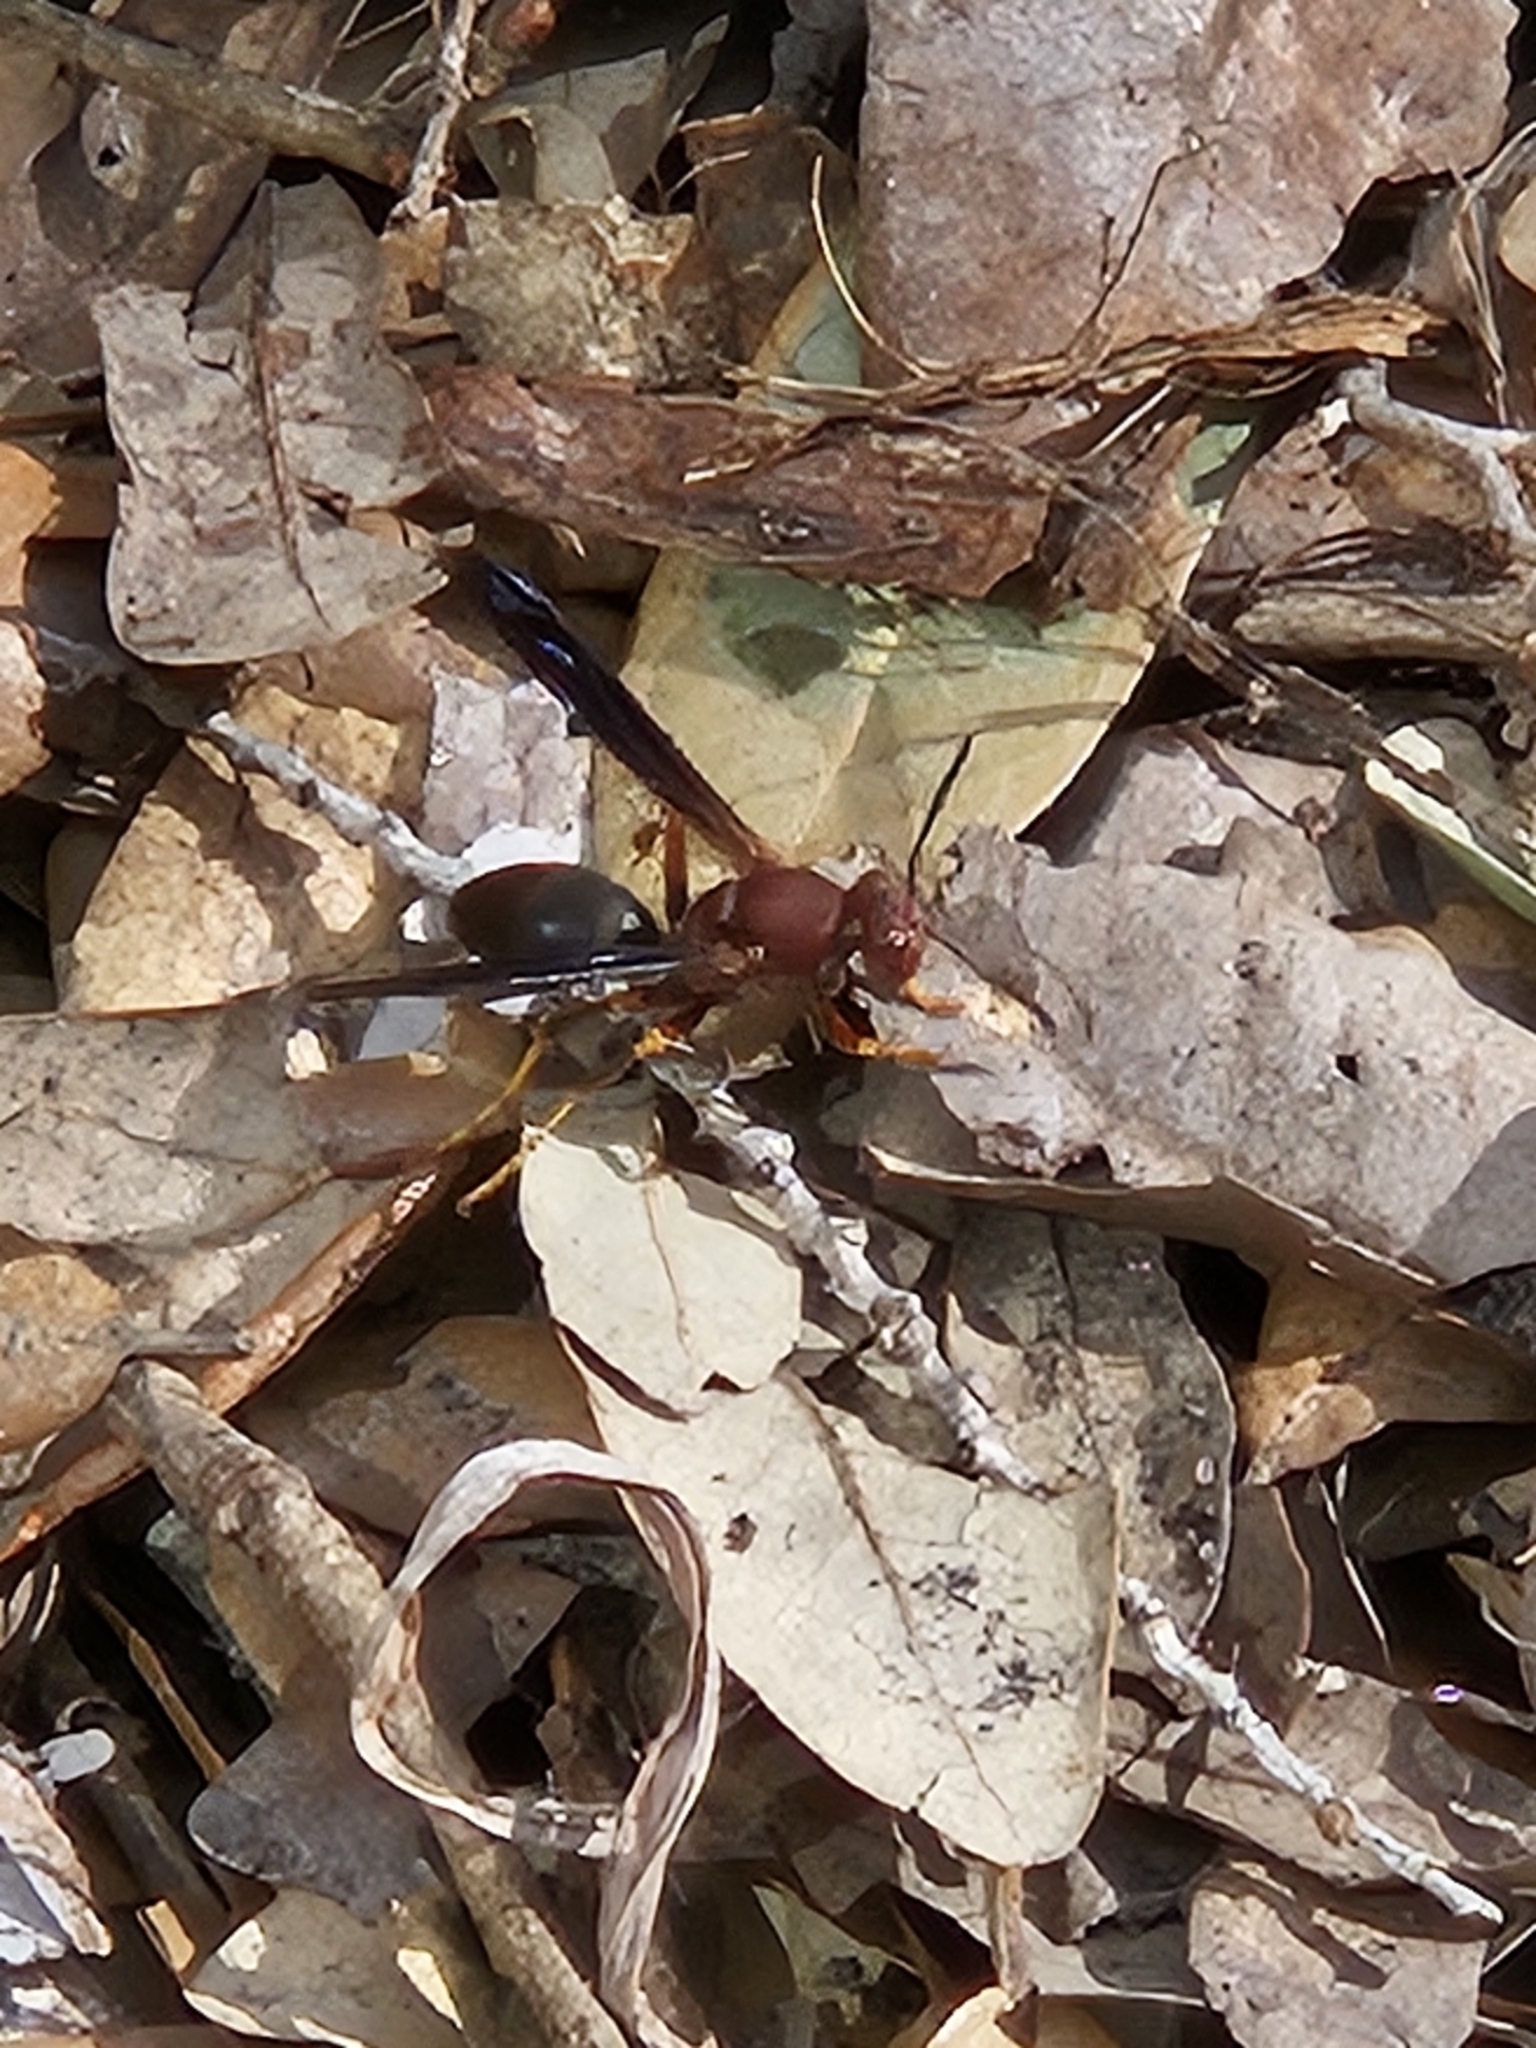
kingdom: Animalia
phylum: Arthropoda
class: Insecta
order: Hymenoptera
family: Eumenidae
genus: Polistes
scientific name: Polistes metricus
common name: Metric paper wasp
